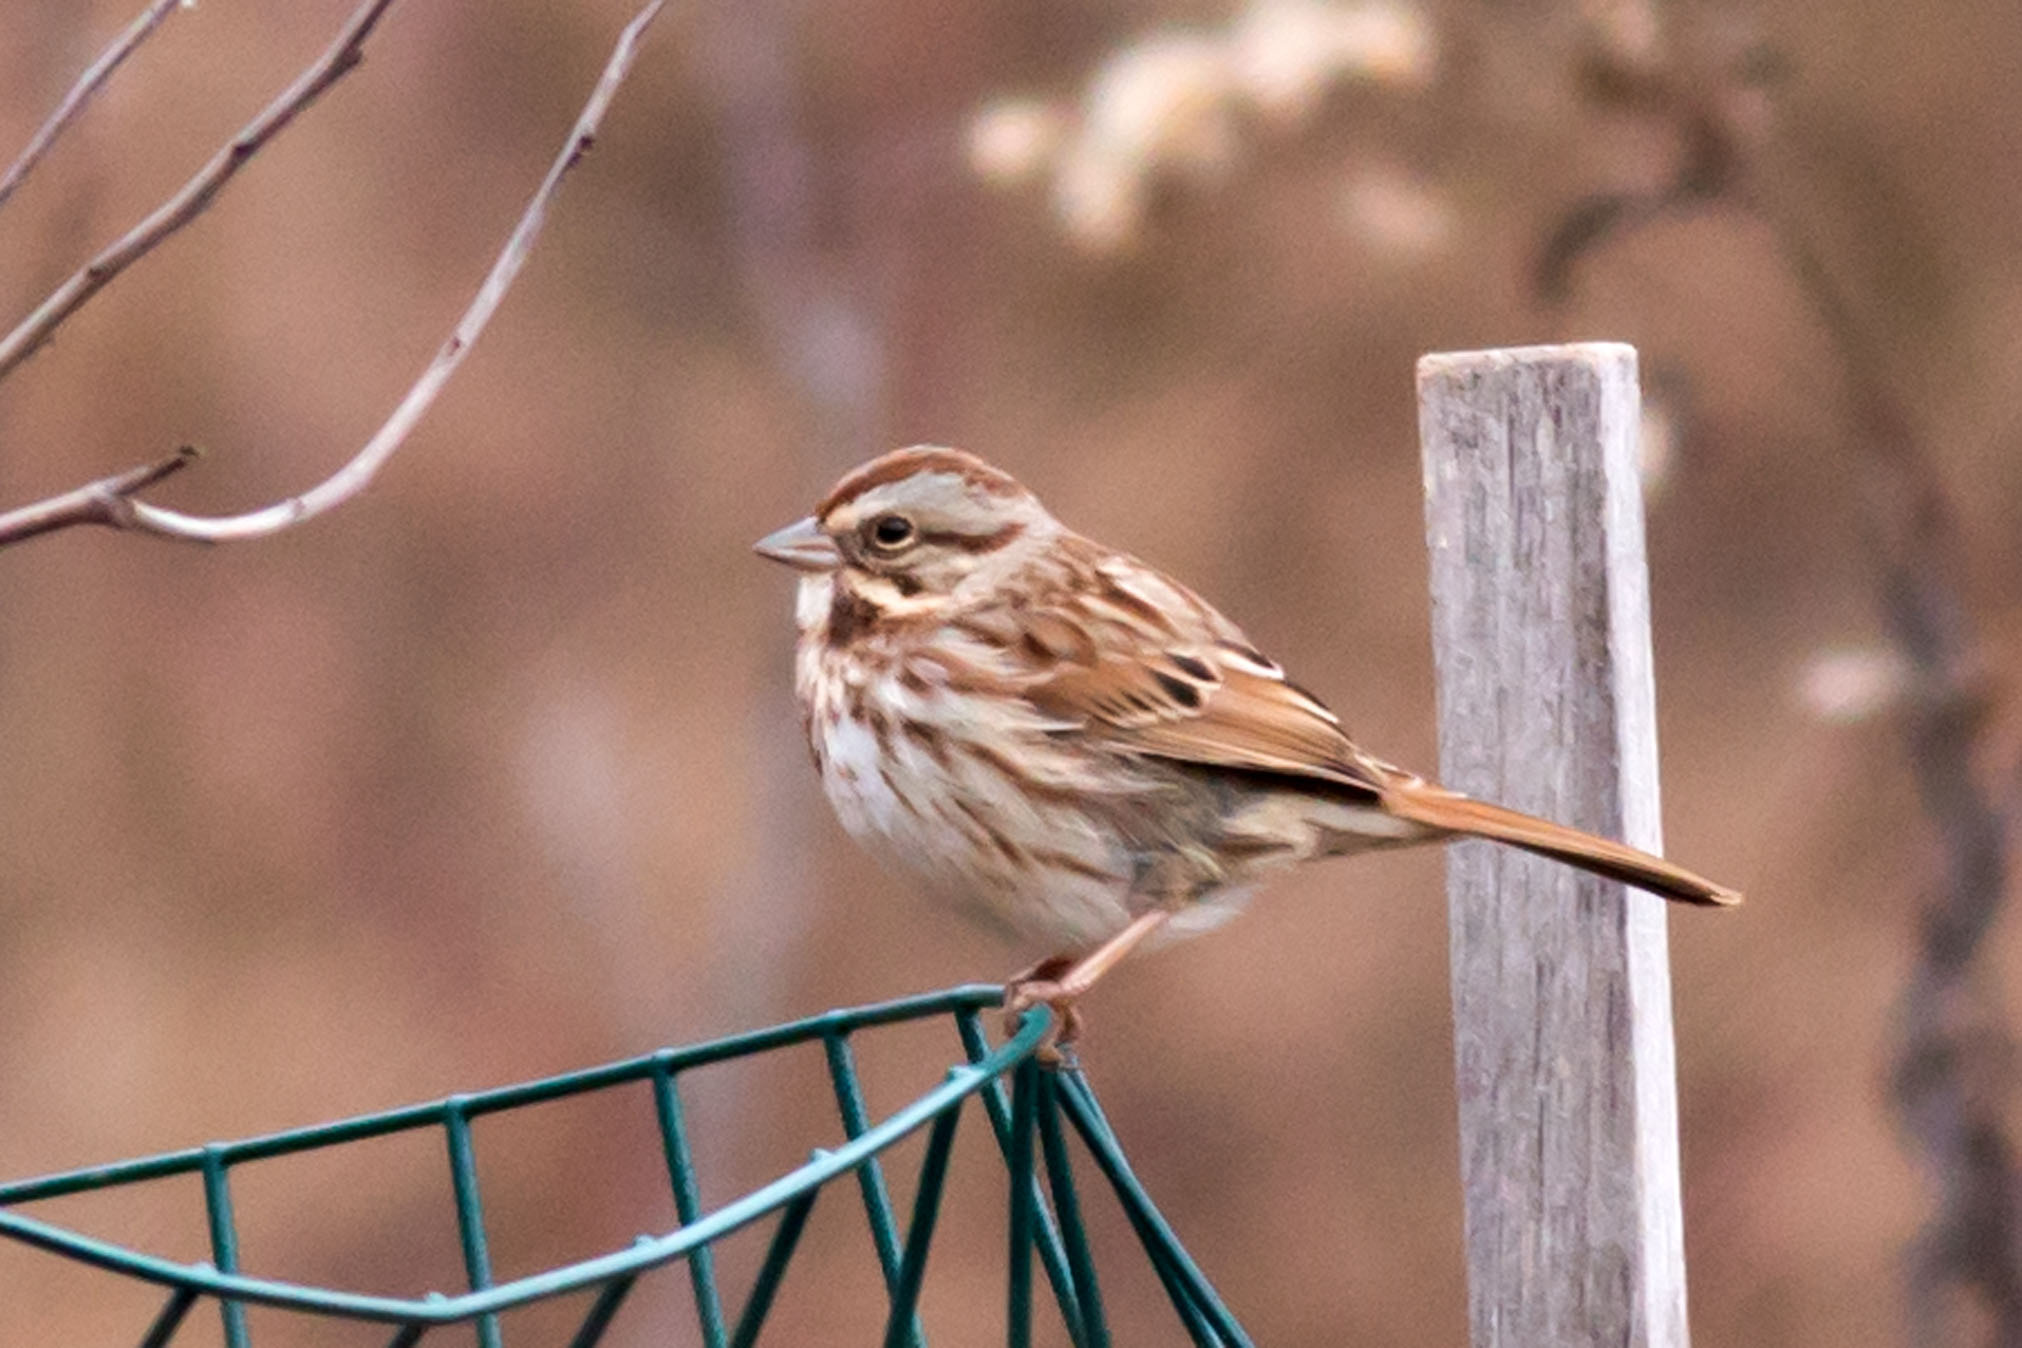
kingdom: Animalia
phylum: Chordata
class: Aves
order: Passeriformes
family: Passerellidae
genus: Melospiza
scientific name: Melospiza melodia
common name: Song sparrow
